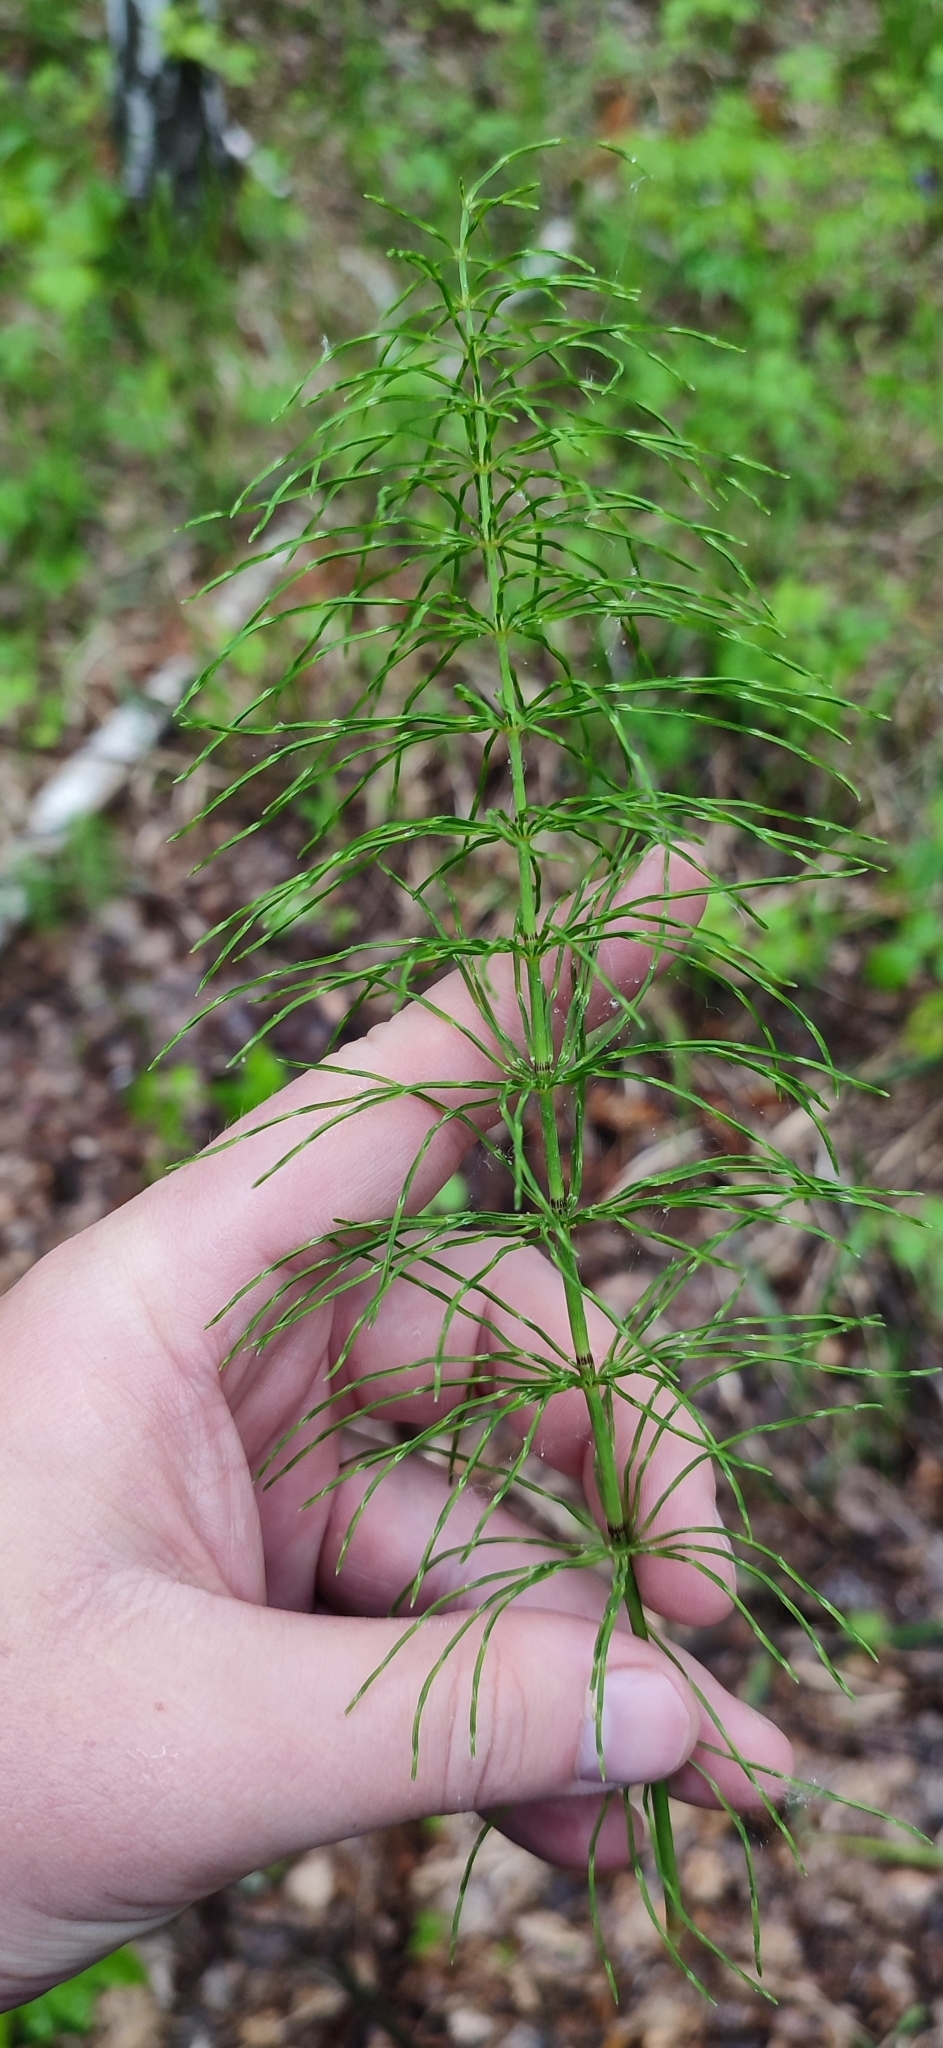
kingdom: Plantae
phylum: Tracheophyta
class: Polypodiopsida
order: Equisetales
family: Equisetaceae
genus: Equisetum
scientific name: Equisetum pratense
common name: Meadow horsetail
